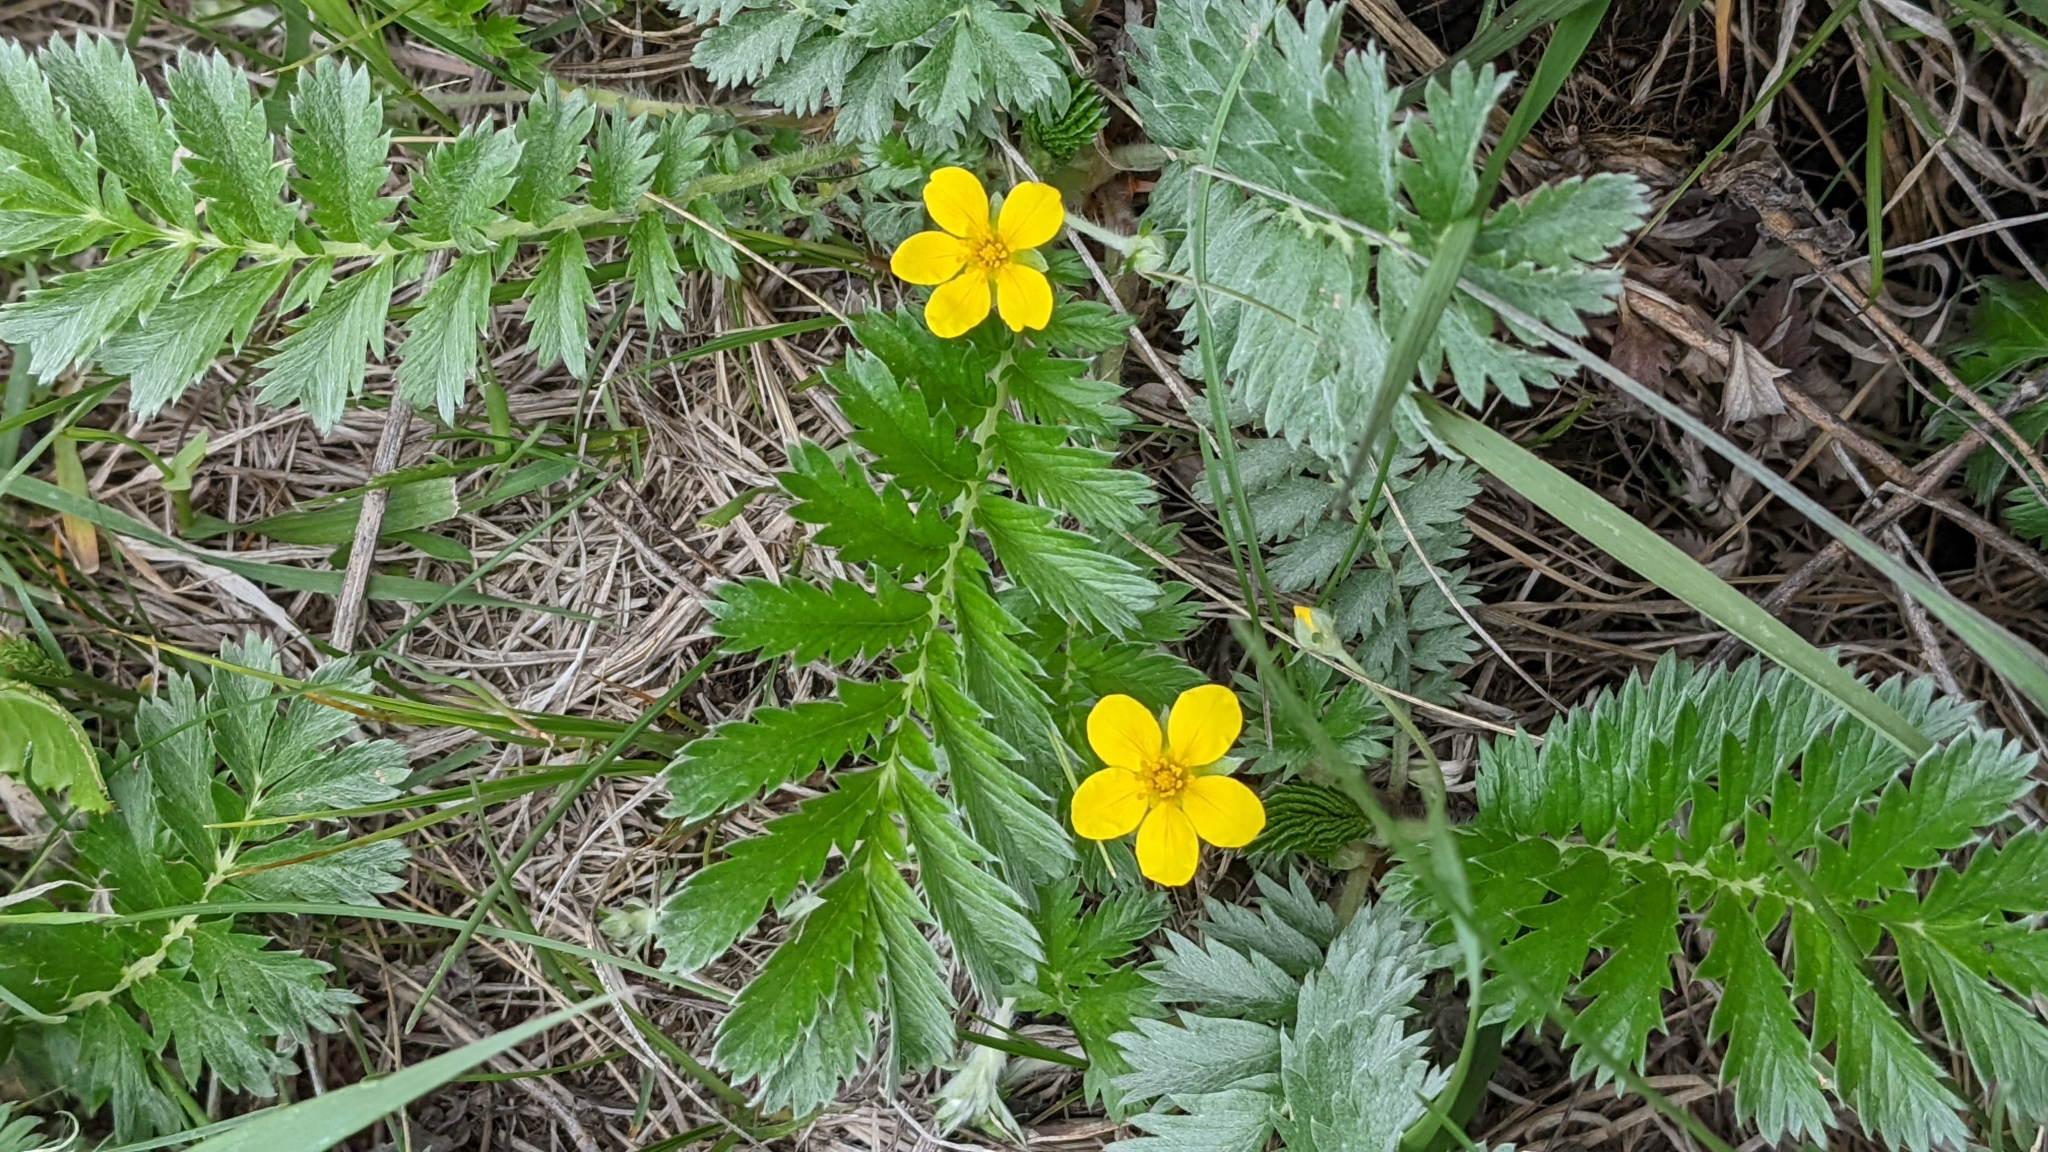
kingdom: Plantae
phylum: Tracheophyta
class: Magnoliopsida
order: Rosales
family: Rosaceae
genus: Argentina
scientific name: Argentina anserina
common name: Common silverweed
